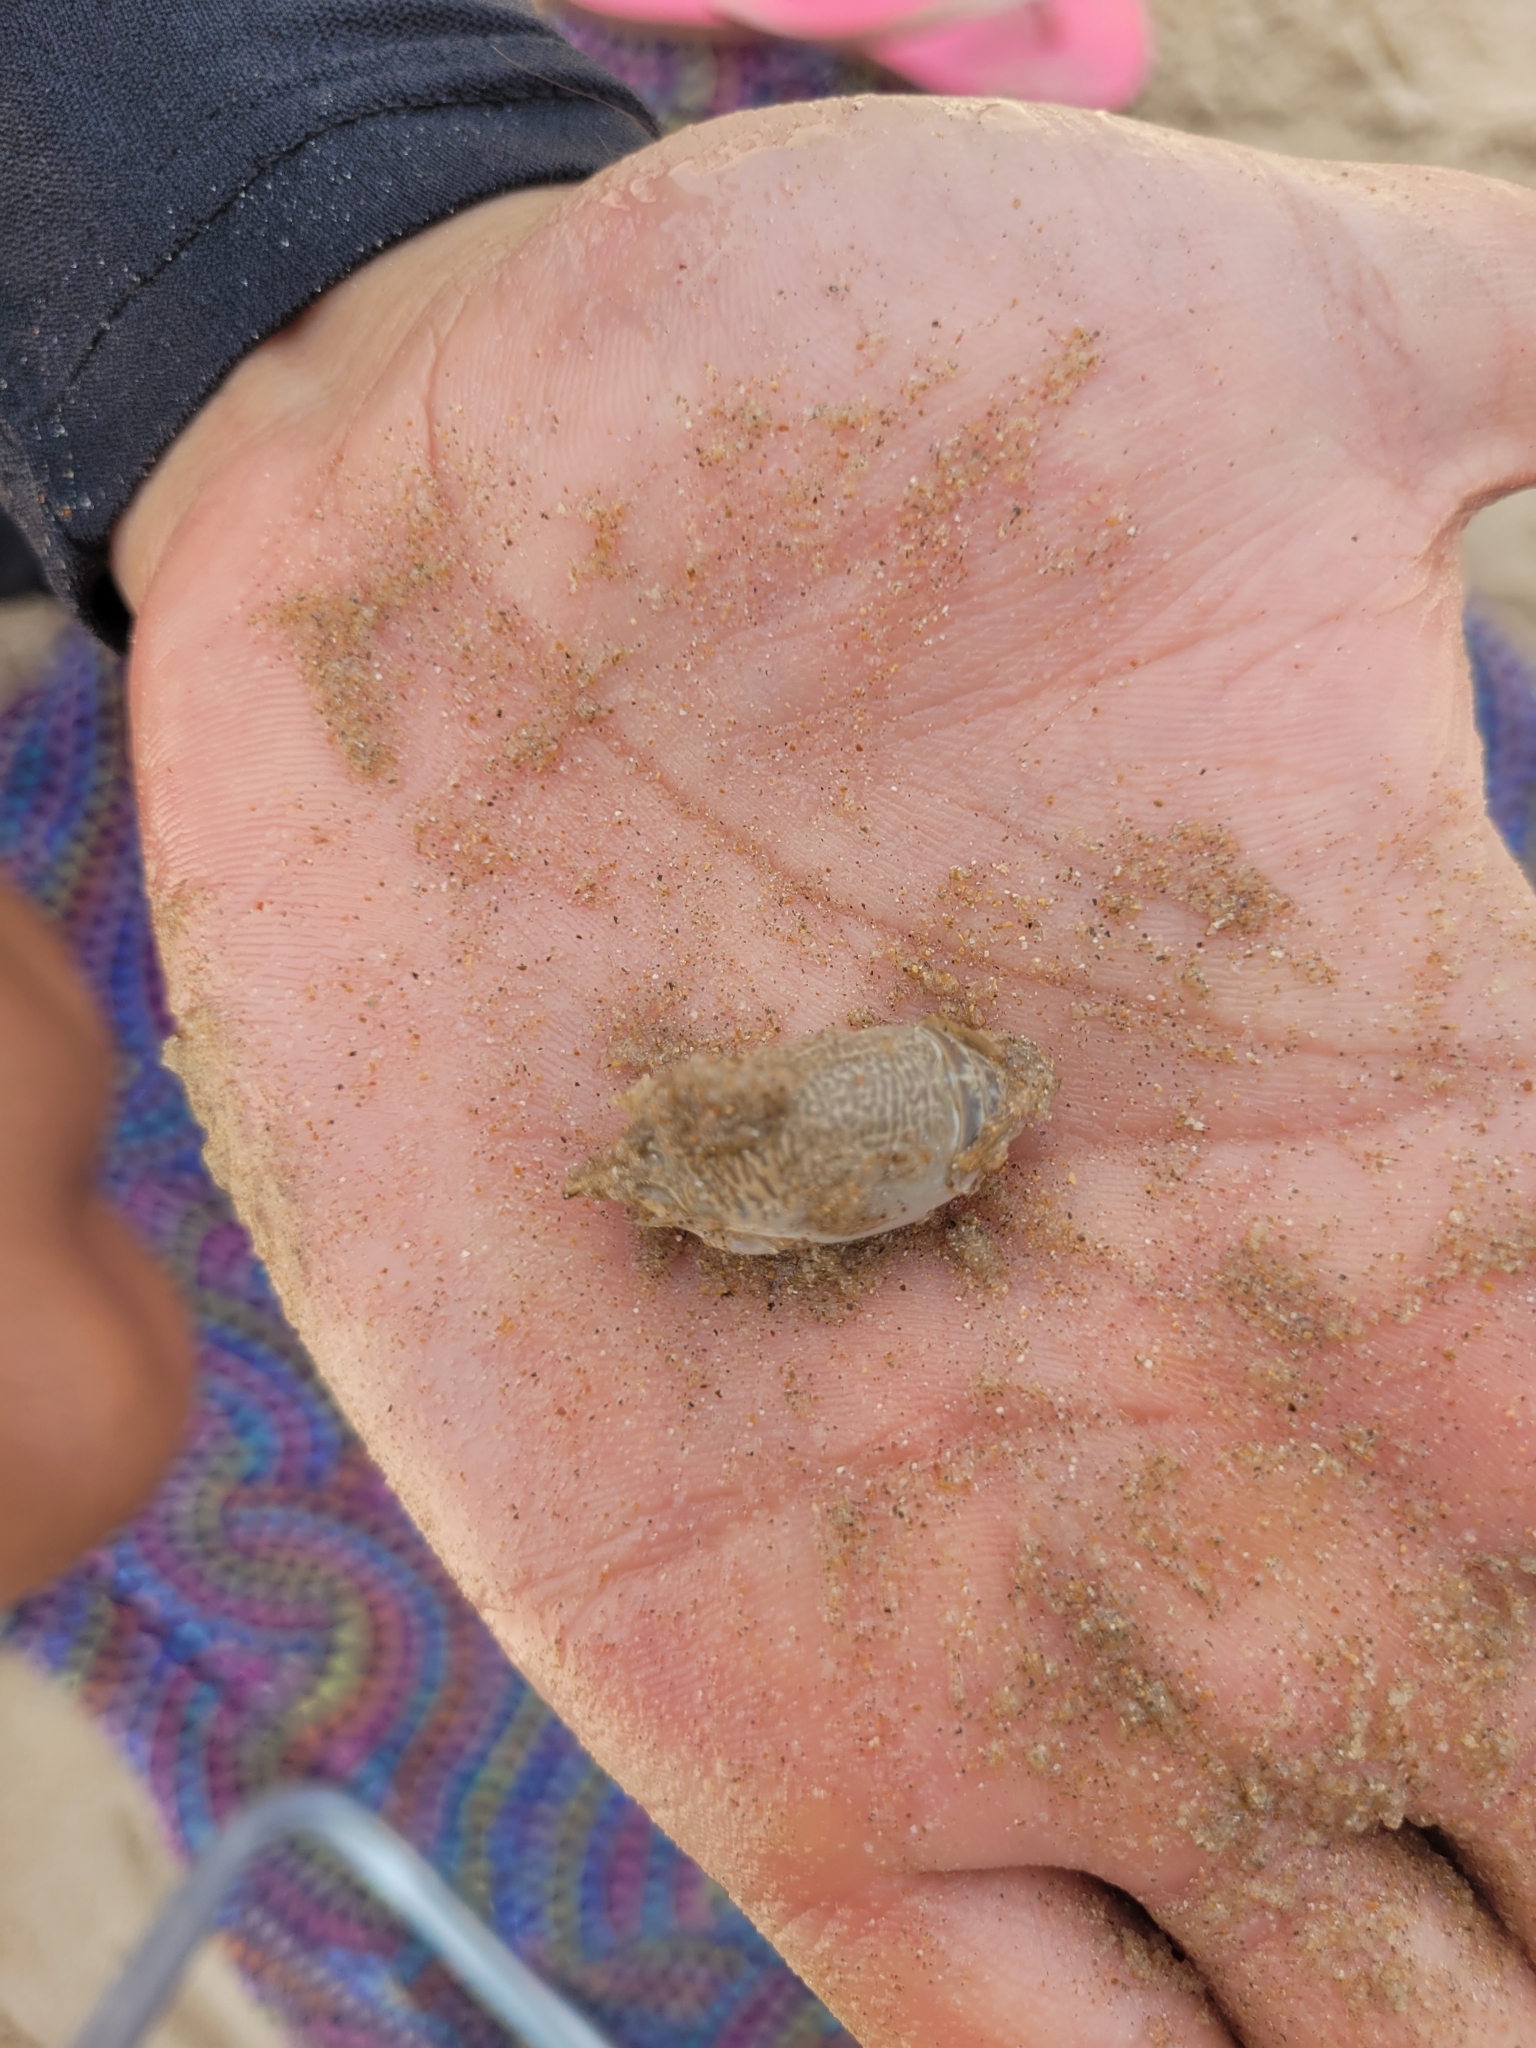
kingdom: Animalia
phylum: Arthropoda
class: Malacostraca
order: Decapoda
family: Hippidae
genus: Emerita
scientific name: Emerita brasiliensis
